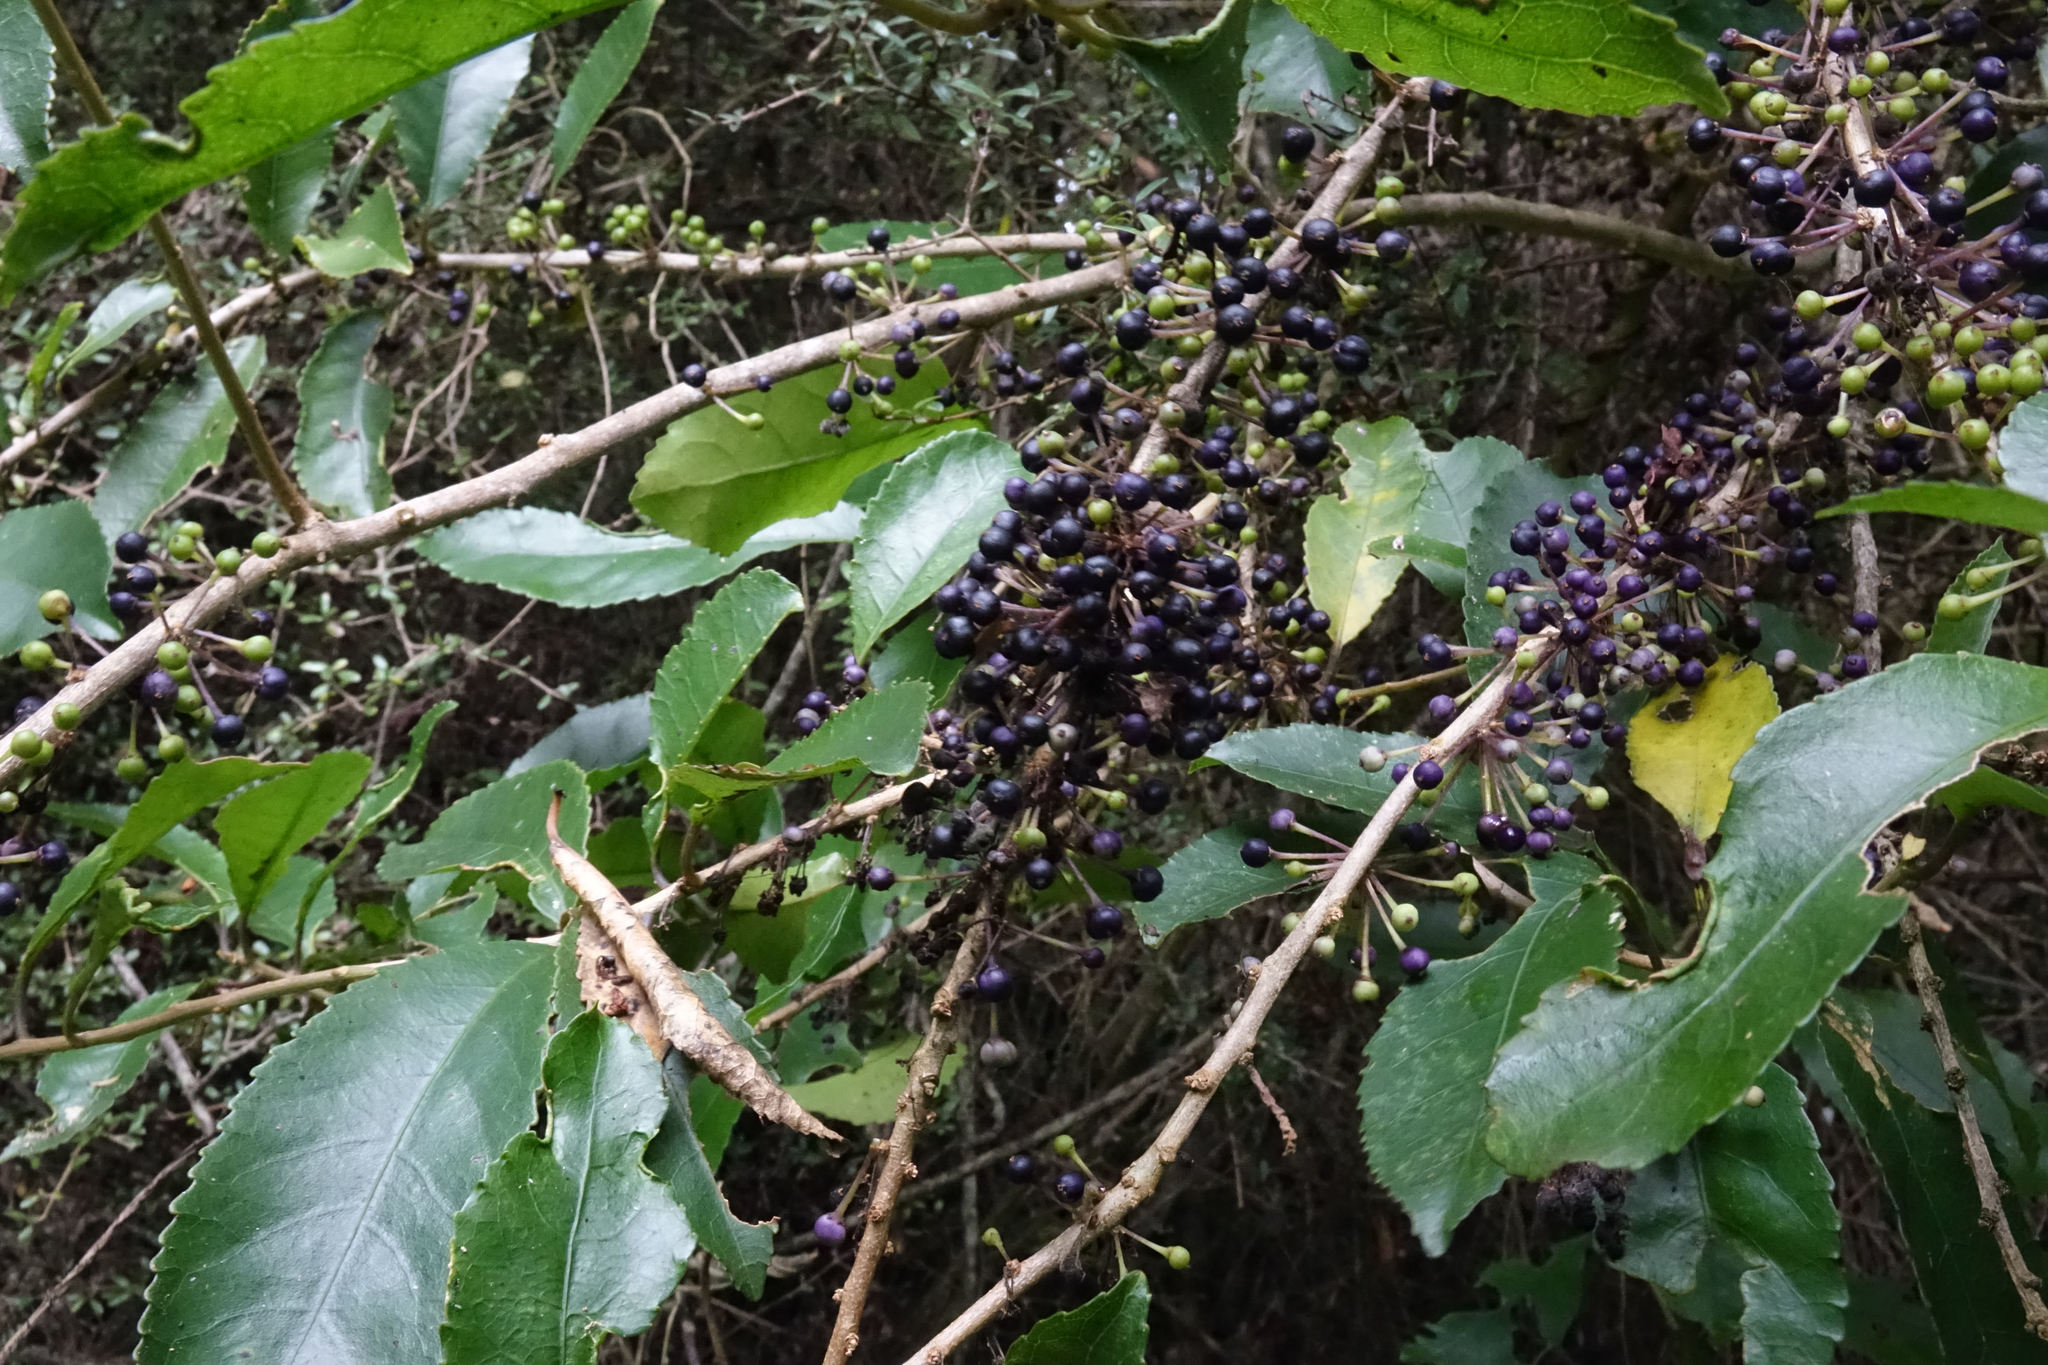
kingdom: Plantae
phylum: Tracheophyta
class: Magnoliopsida
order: Malpighiales
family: Violaceae
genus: Melicytus
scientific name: Melicytus ramiflorus
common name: Mahoe
